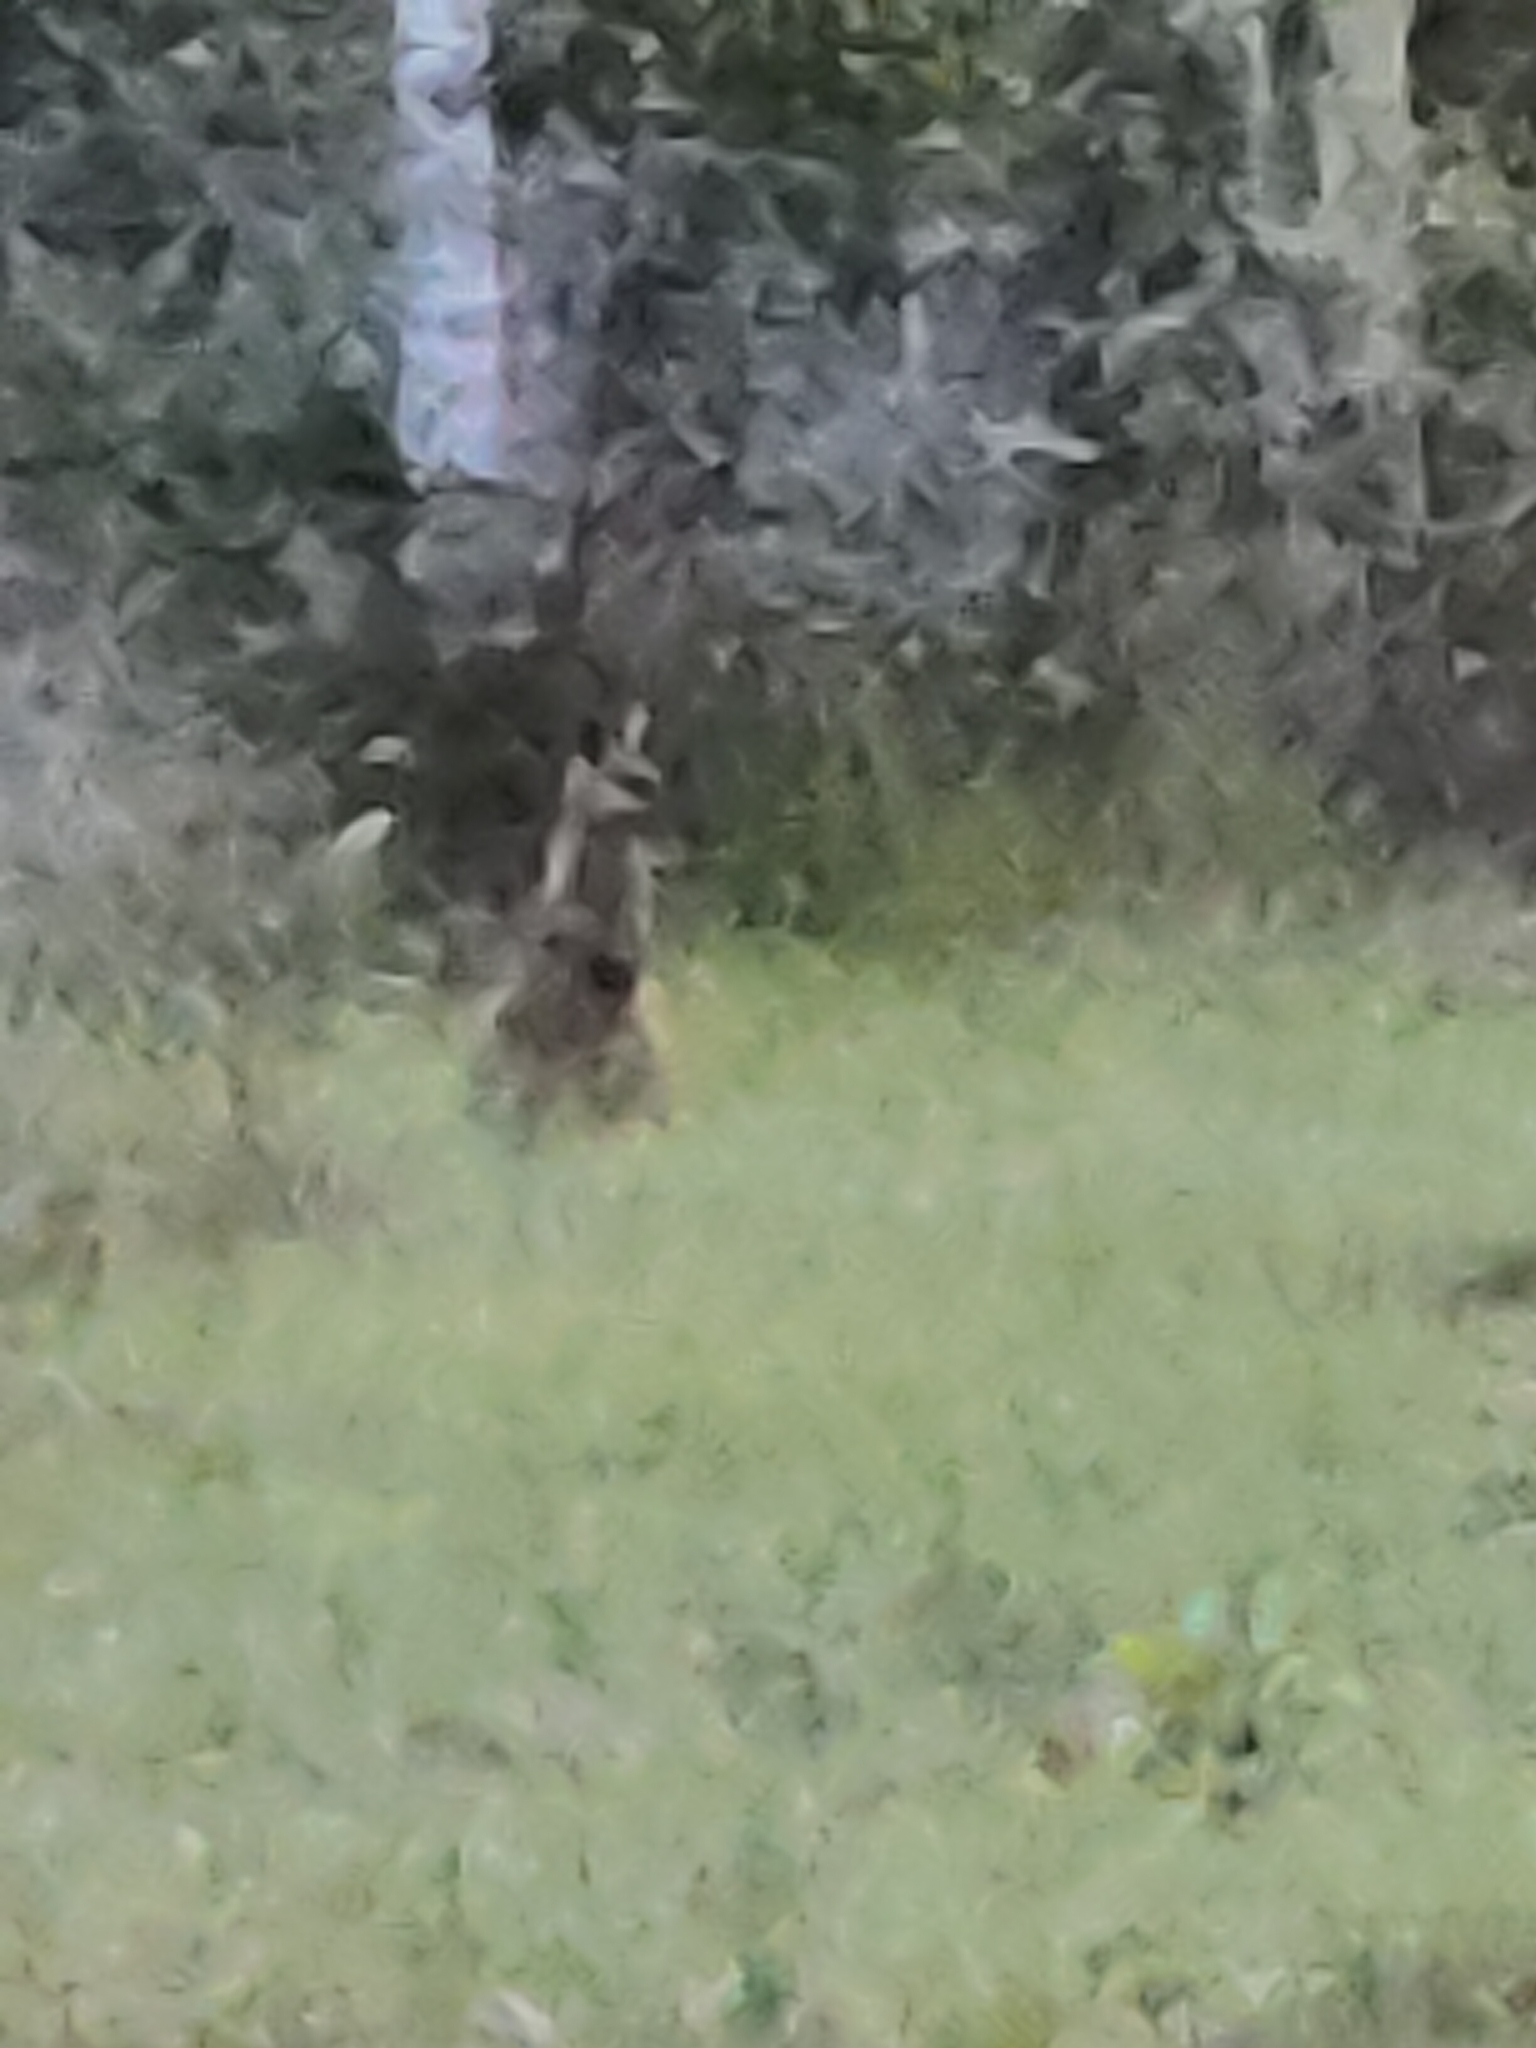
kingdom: Animalia
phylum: Chordata
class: Mammalia
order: Diprotodontia
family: Macropodidae
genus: Wallabia
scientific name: Wallabia bicolor
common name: Swamp wallaby
